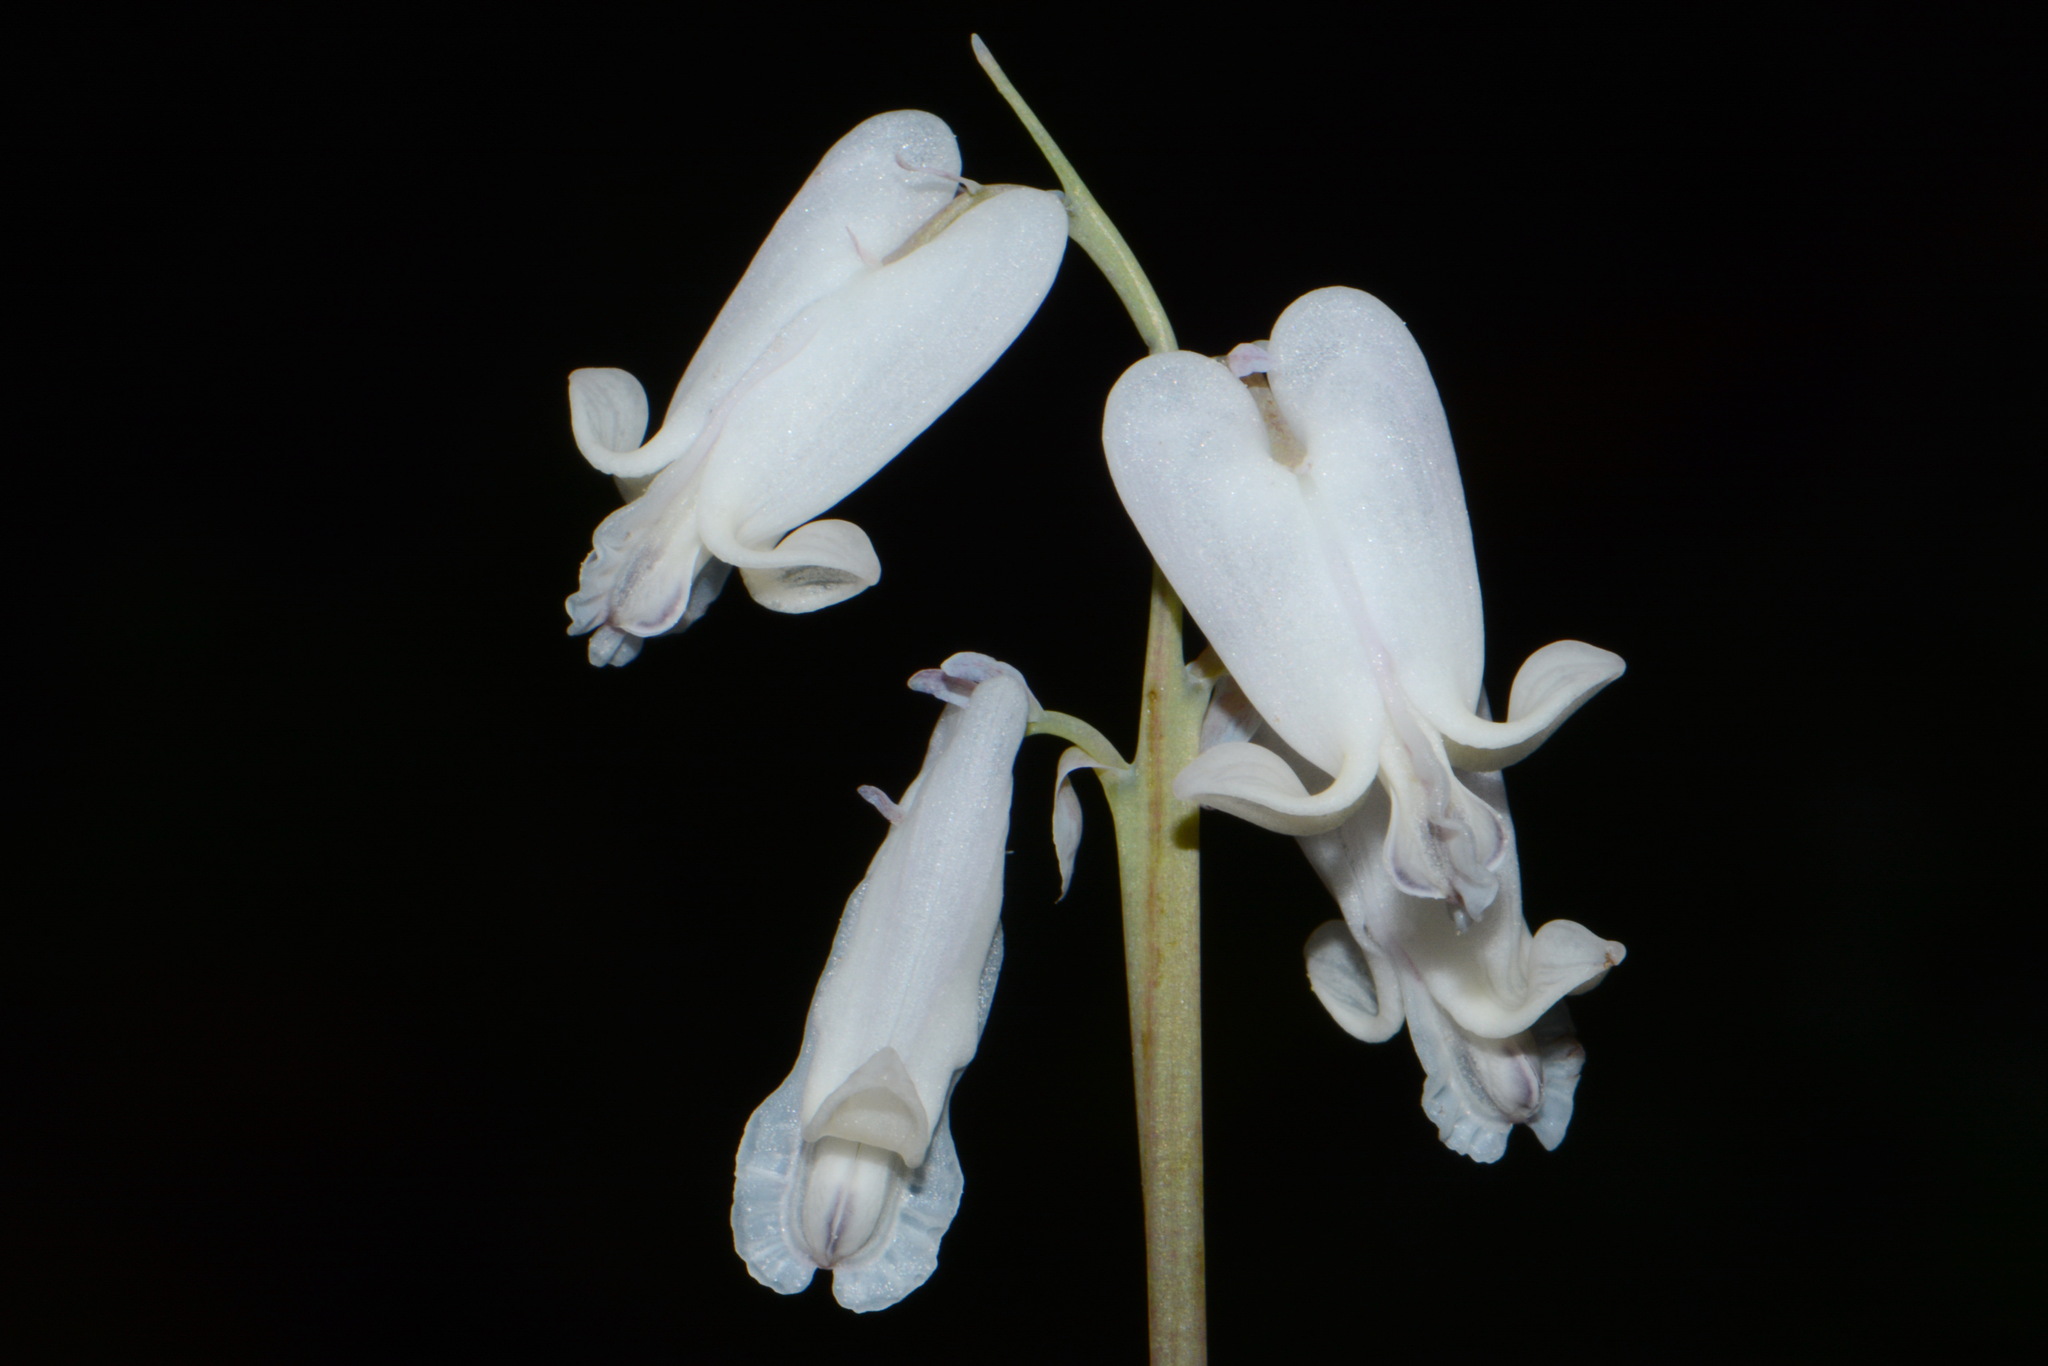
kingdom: Plantae
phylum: Tracheophyta
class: Magnoliopsida
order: Ranunculales
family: Papaveraceae
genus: Dicentra
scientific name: Dicentra canadensis
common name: Squirrel-corn
